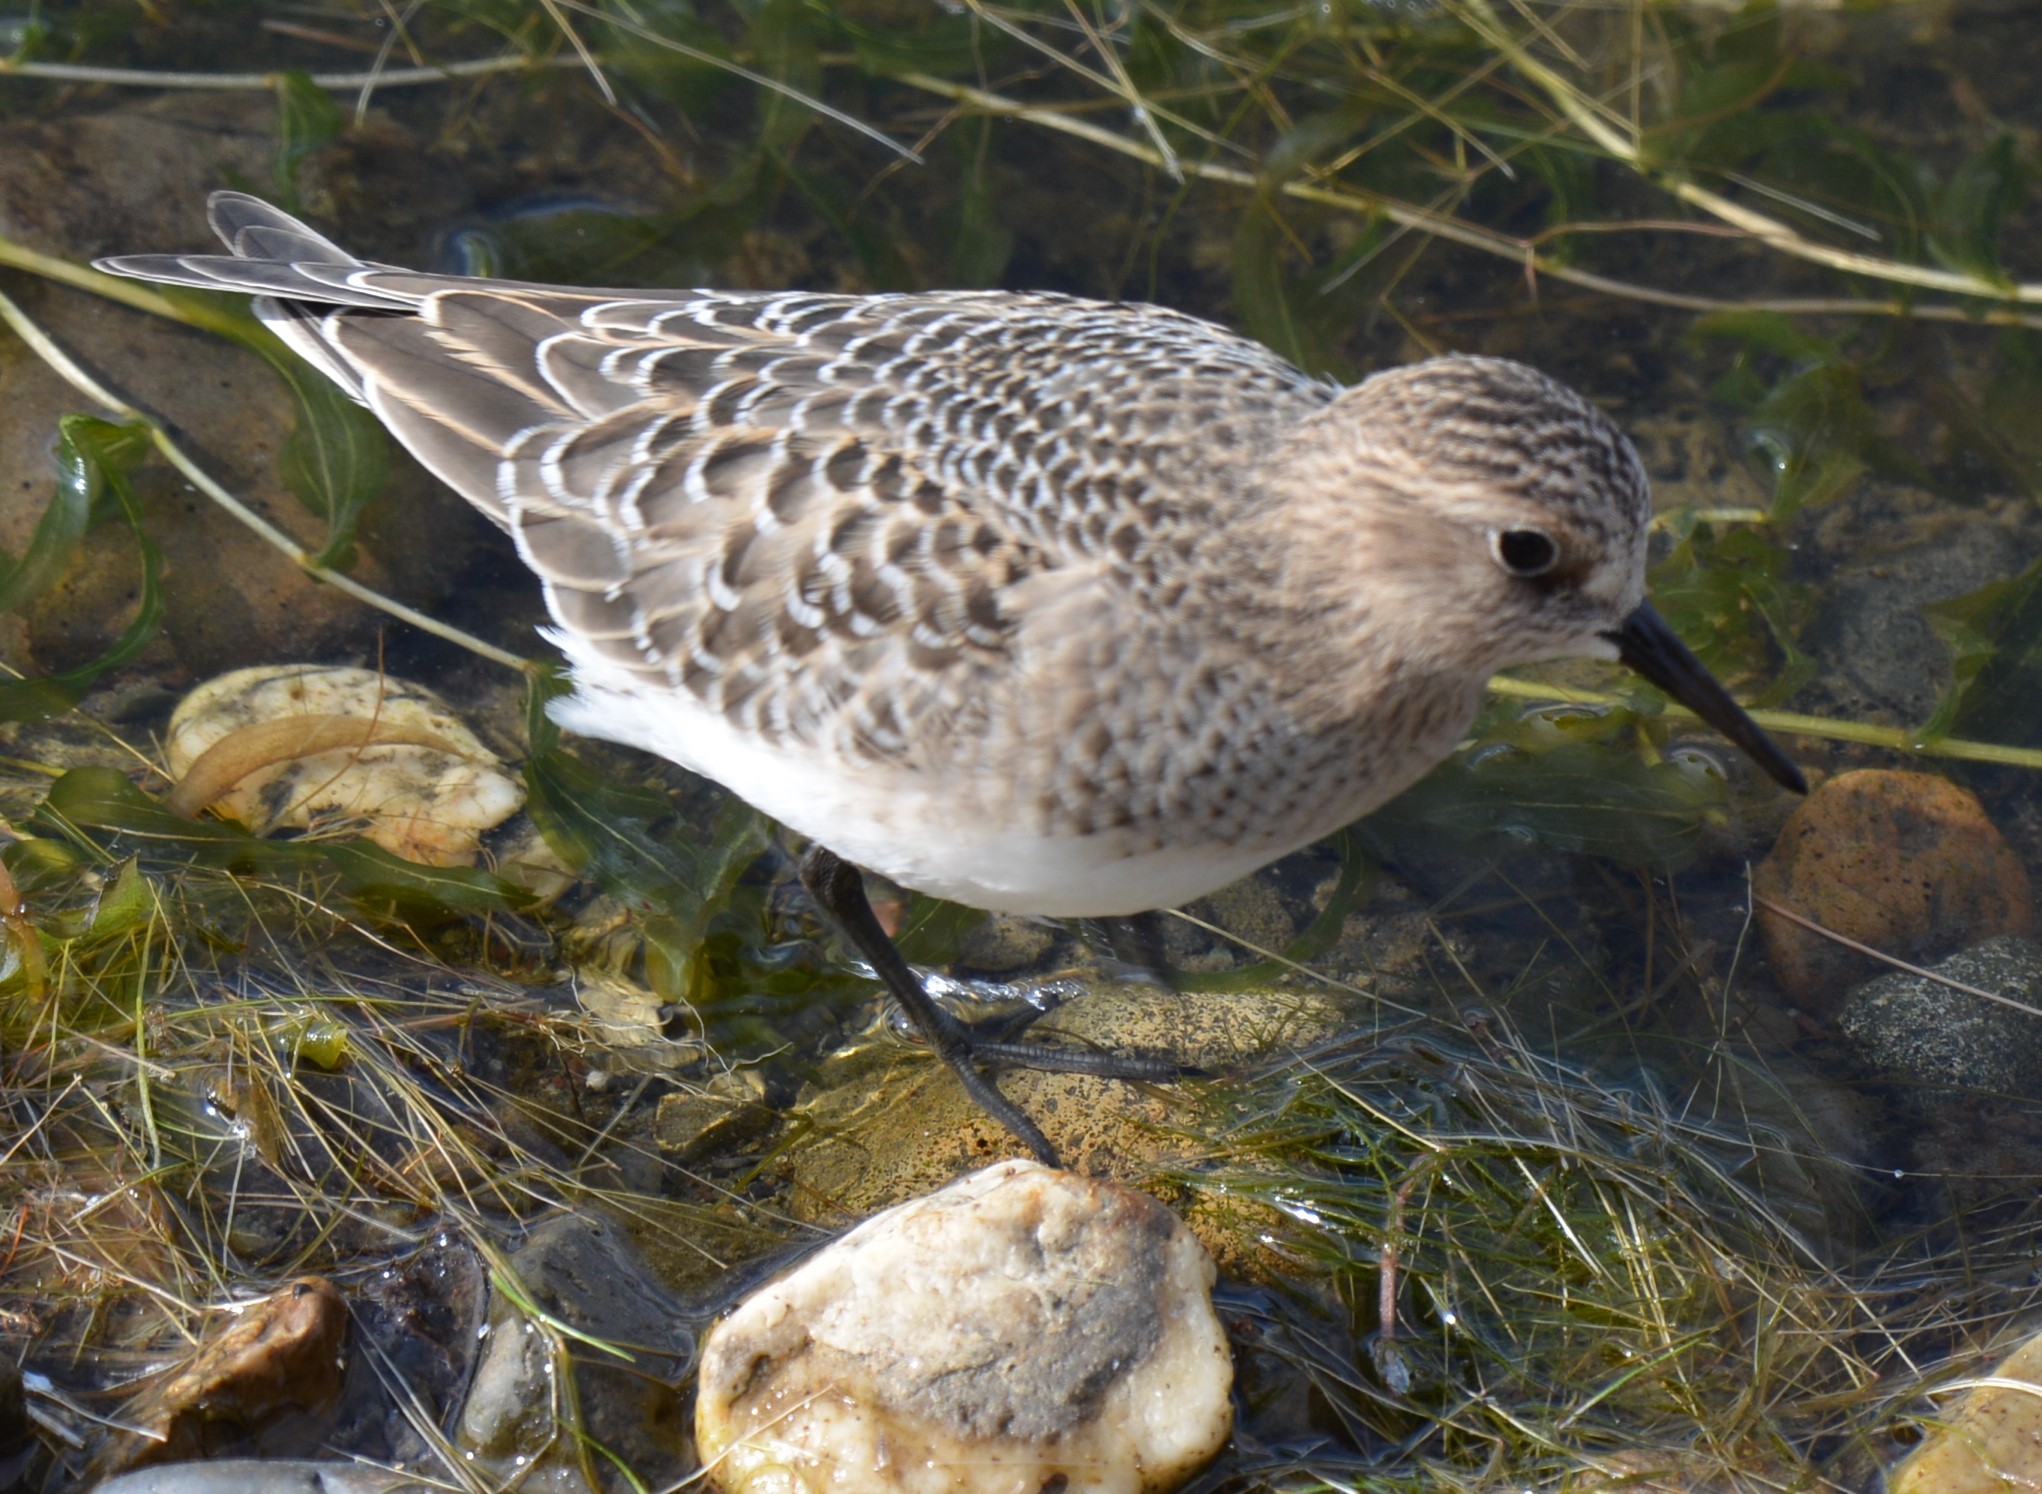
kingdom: Animalia
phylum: Chordata
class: Aves
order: Charadriiformes
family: Scolopacidae
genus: Calidris
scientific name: Calidris bairdii
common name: Baird's sandpiper
